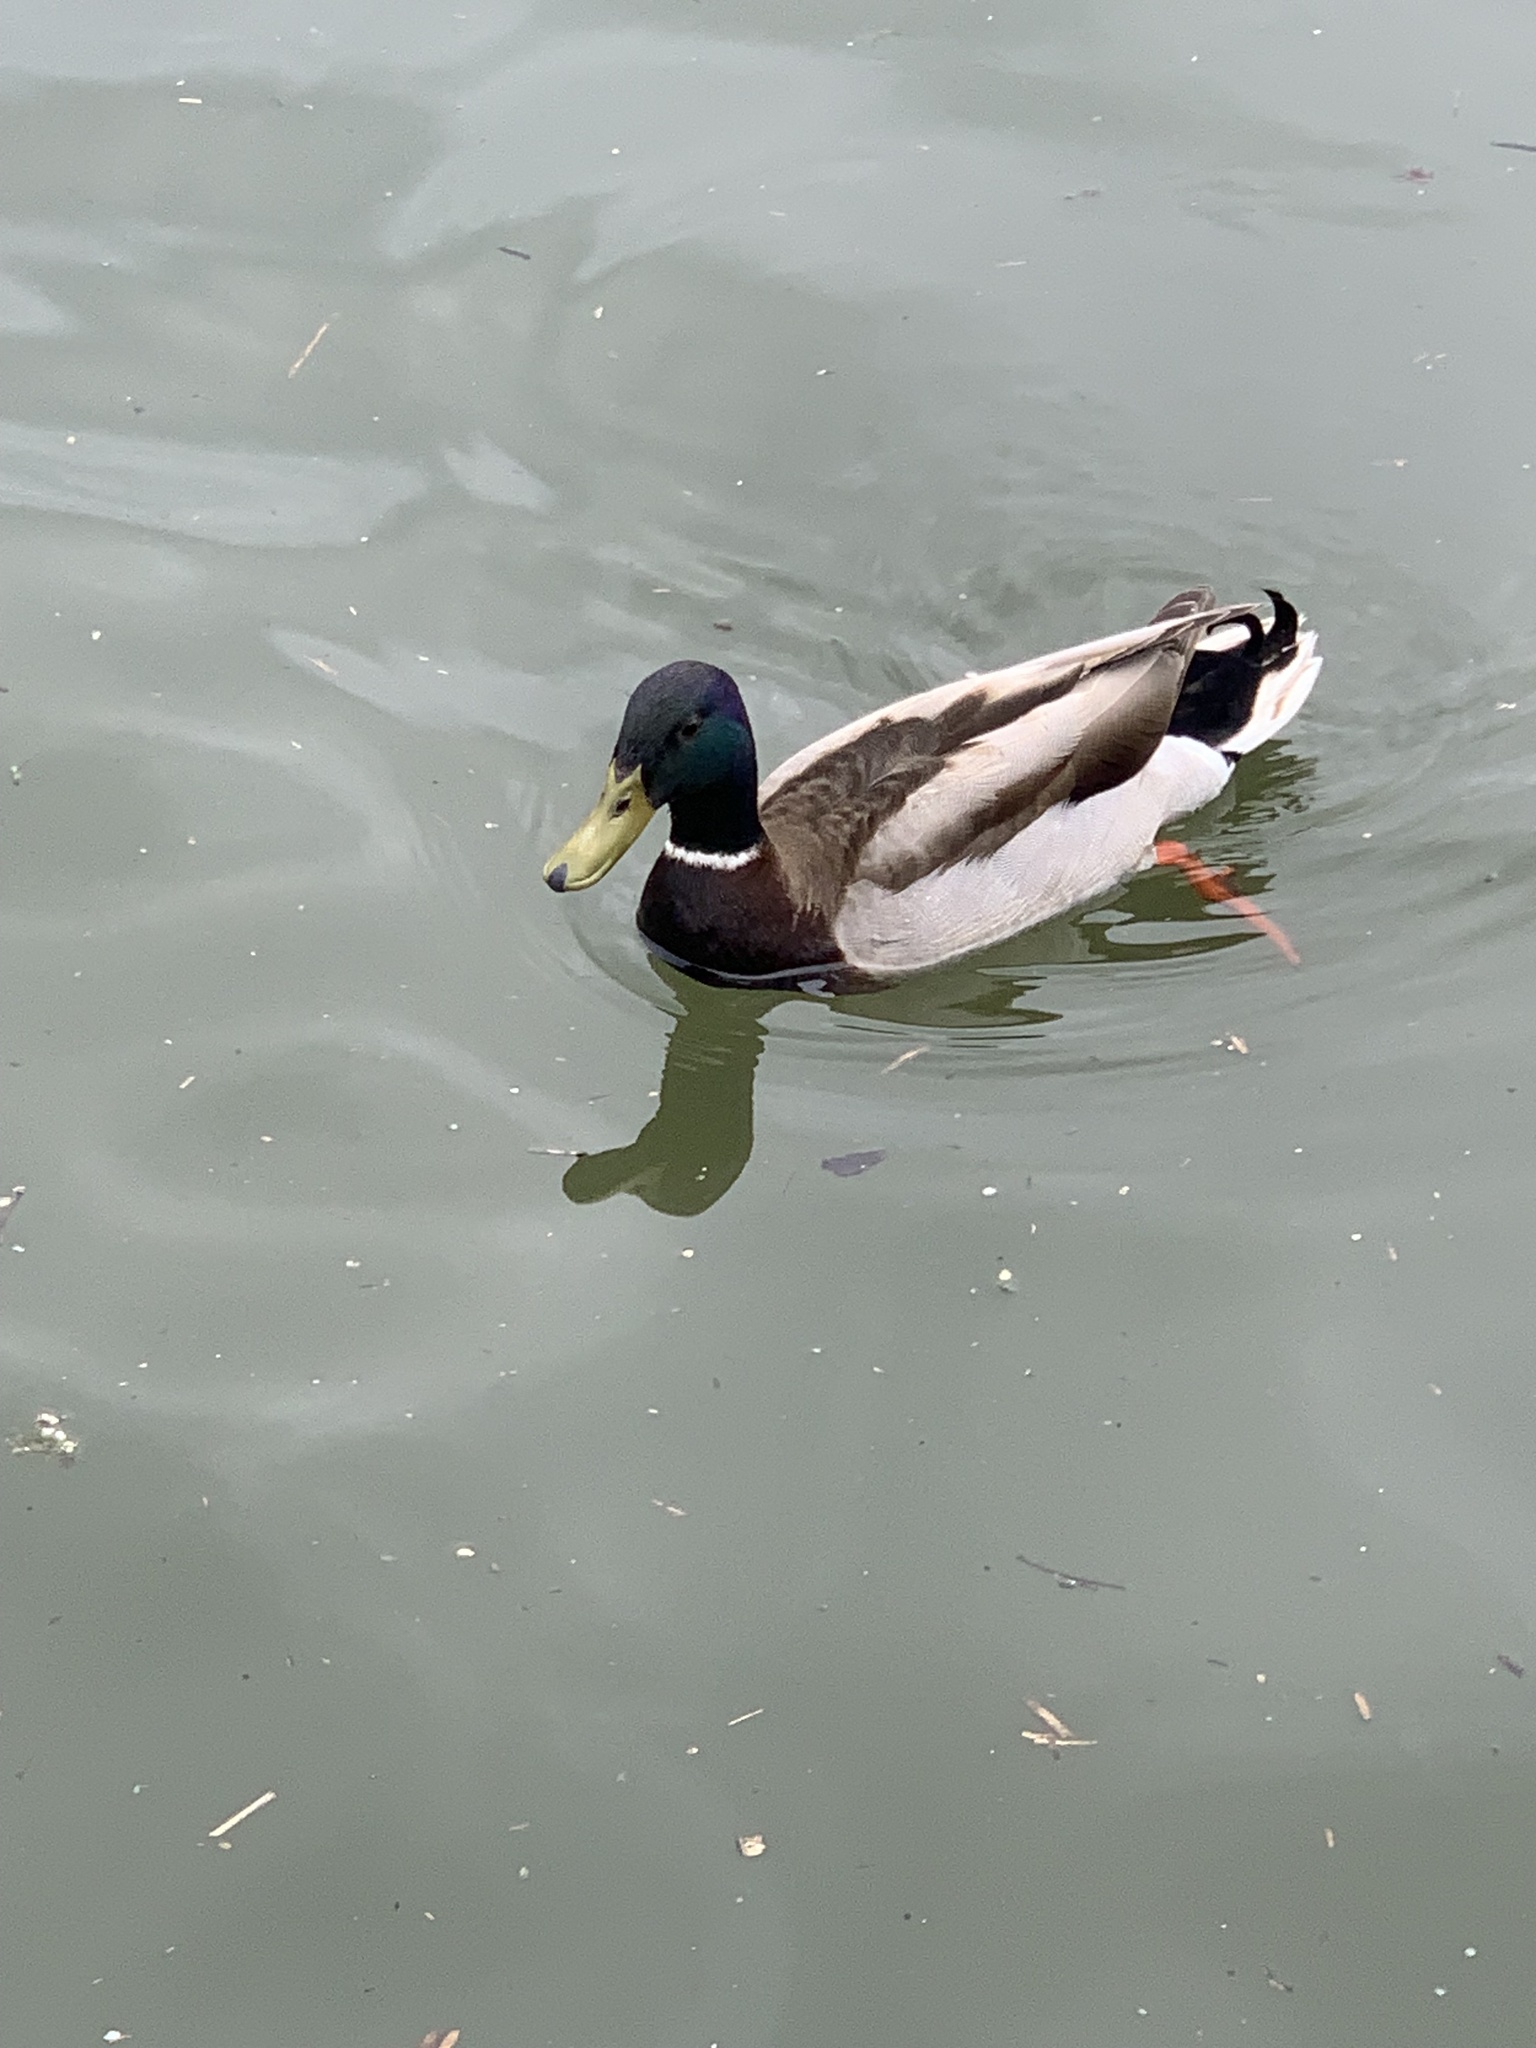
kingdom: Animalia
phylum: Chordata
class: Aves
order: Anseriformes
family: Anatidae
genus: Anas
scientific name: Anas platyrhynchos
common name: Mallard
